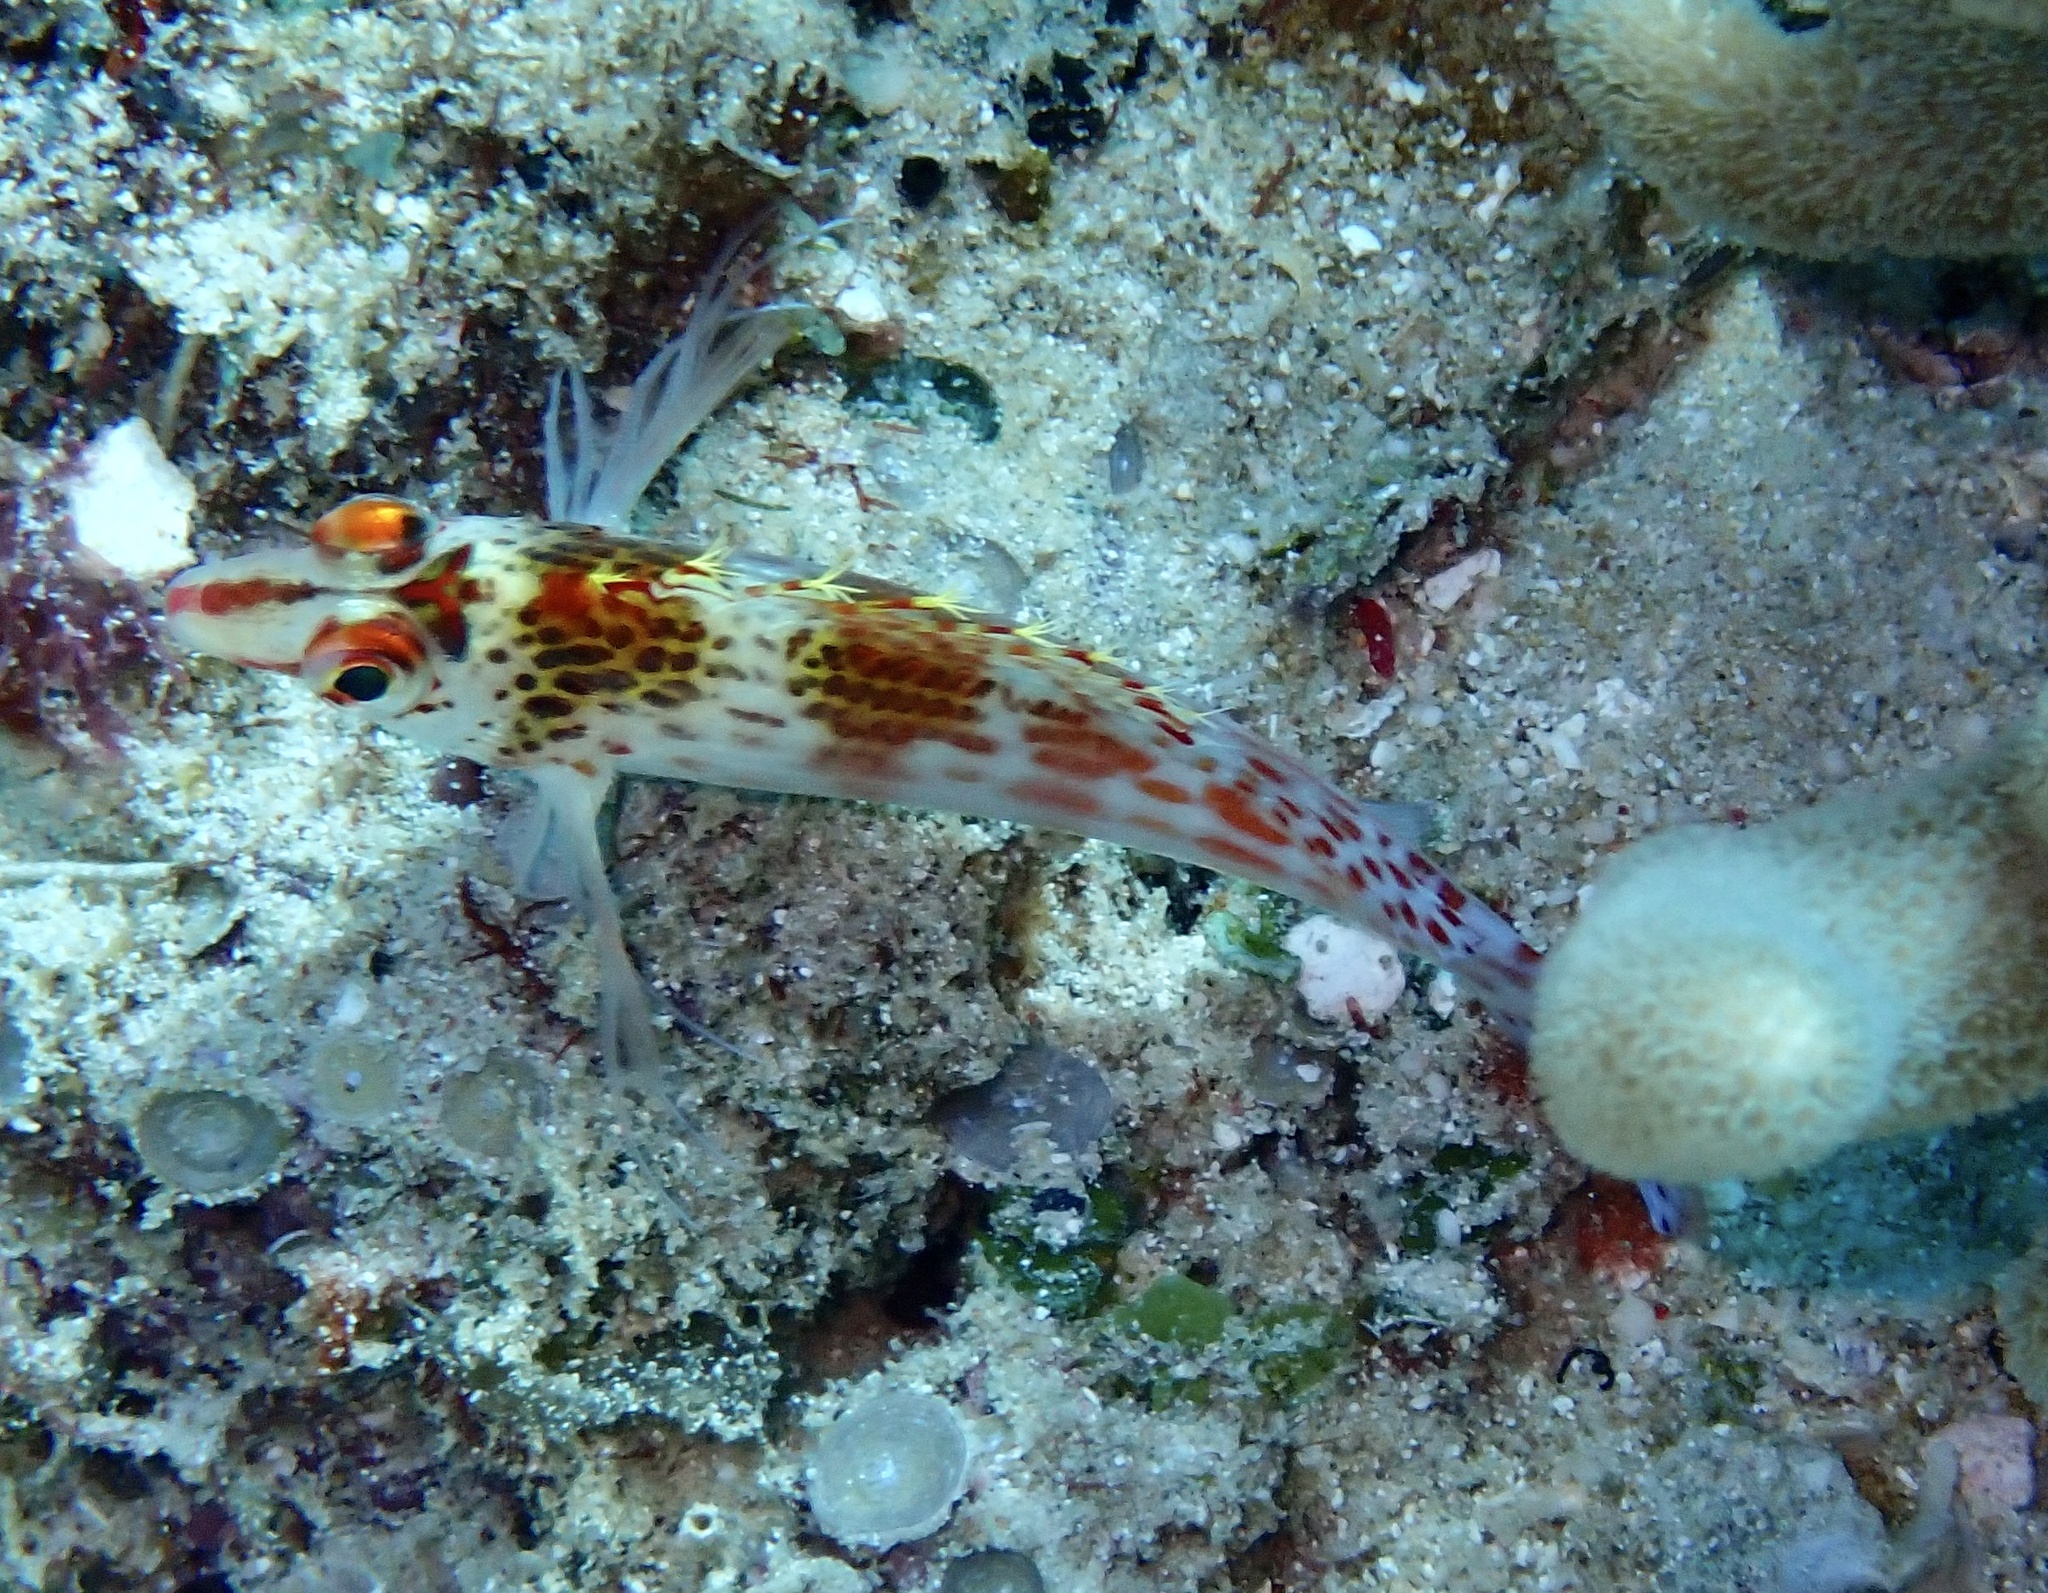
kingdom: Animalia
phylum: Chordata
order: Perciformes
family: Cirrhitidae
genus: Cirrhitichthys
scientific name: Cirrhitichthys falco
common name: Coral hawkfish
